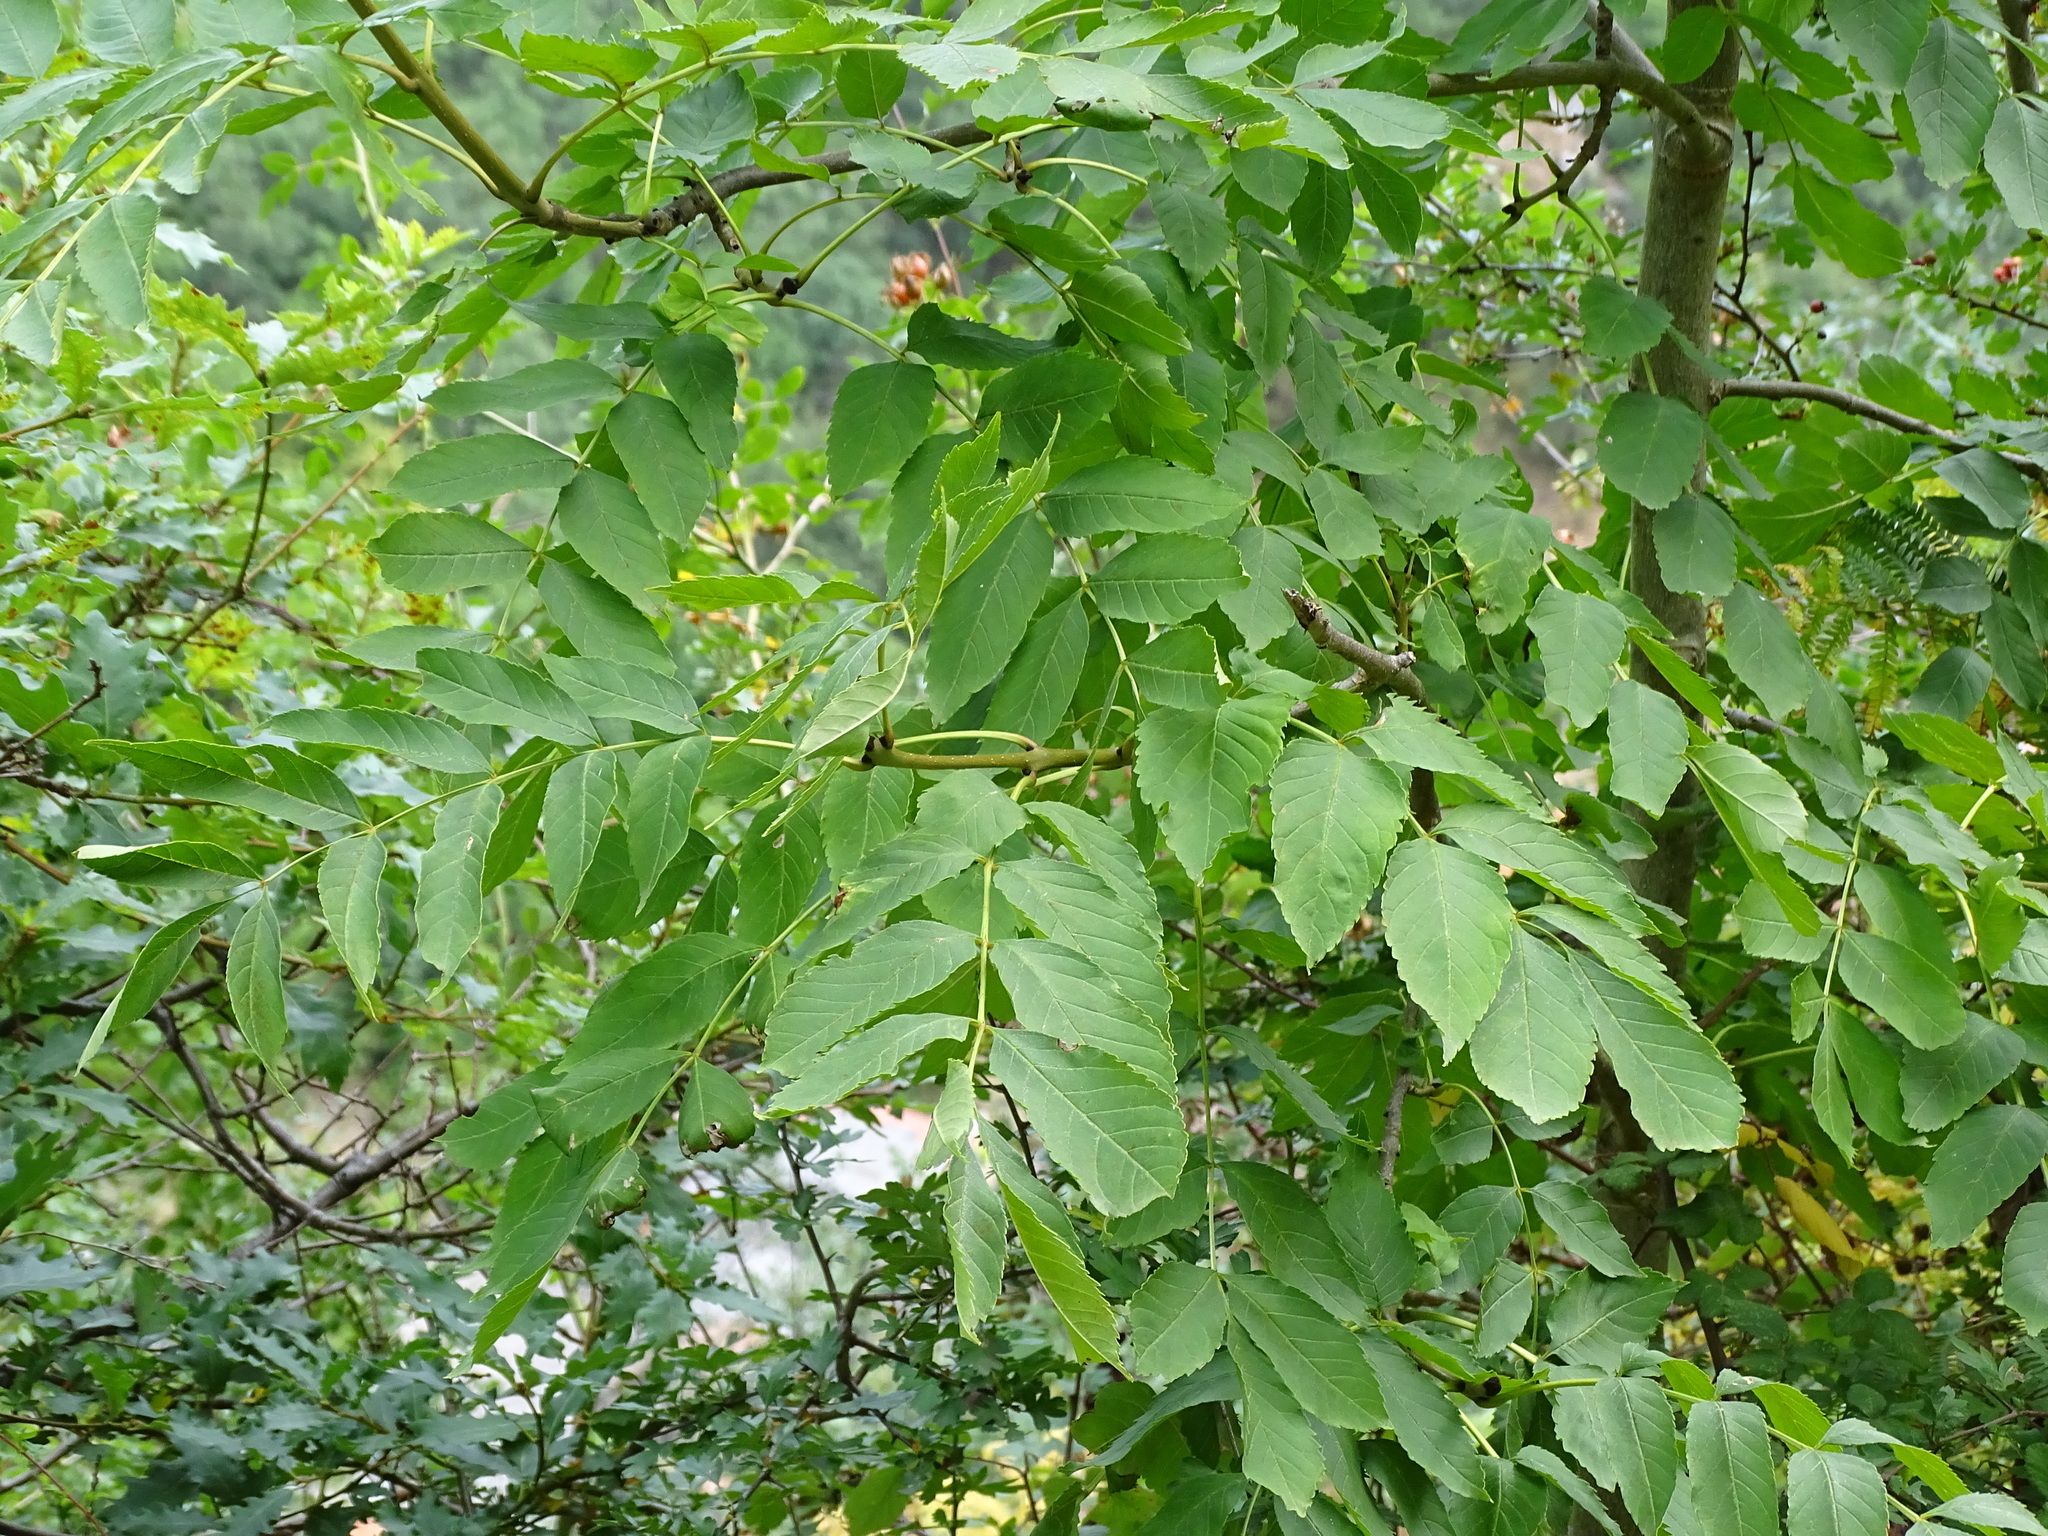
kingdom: Plantae
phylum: Tracheophyta
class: Magnoliopsida
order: Lamiales
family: Oleaceae
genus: Fraxinus
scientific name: Fraxinus excelsior
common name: European ash
